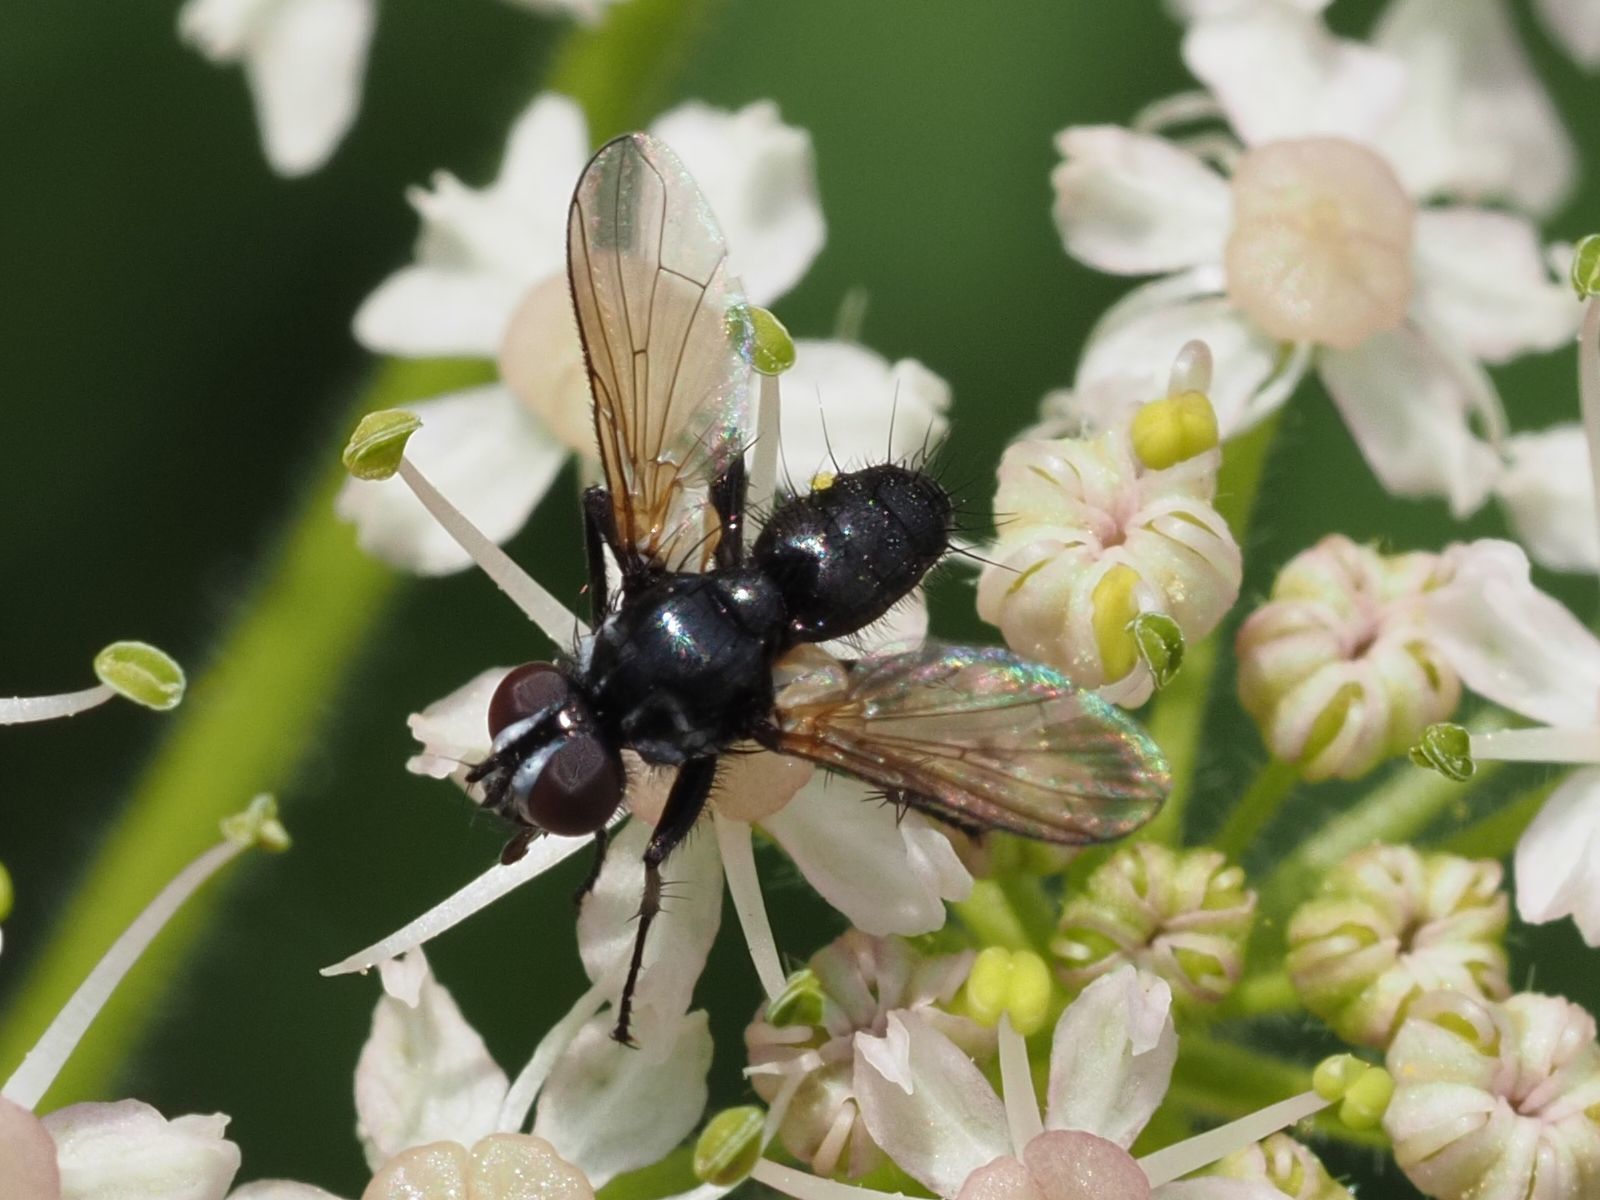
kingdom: Animalia
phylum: Arthropoda
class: Insecta
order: Diptera
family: Tachinidae
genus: Phania
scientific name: Phania funesta
